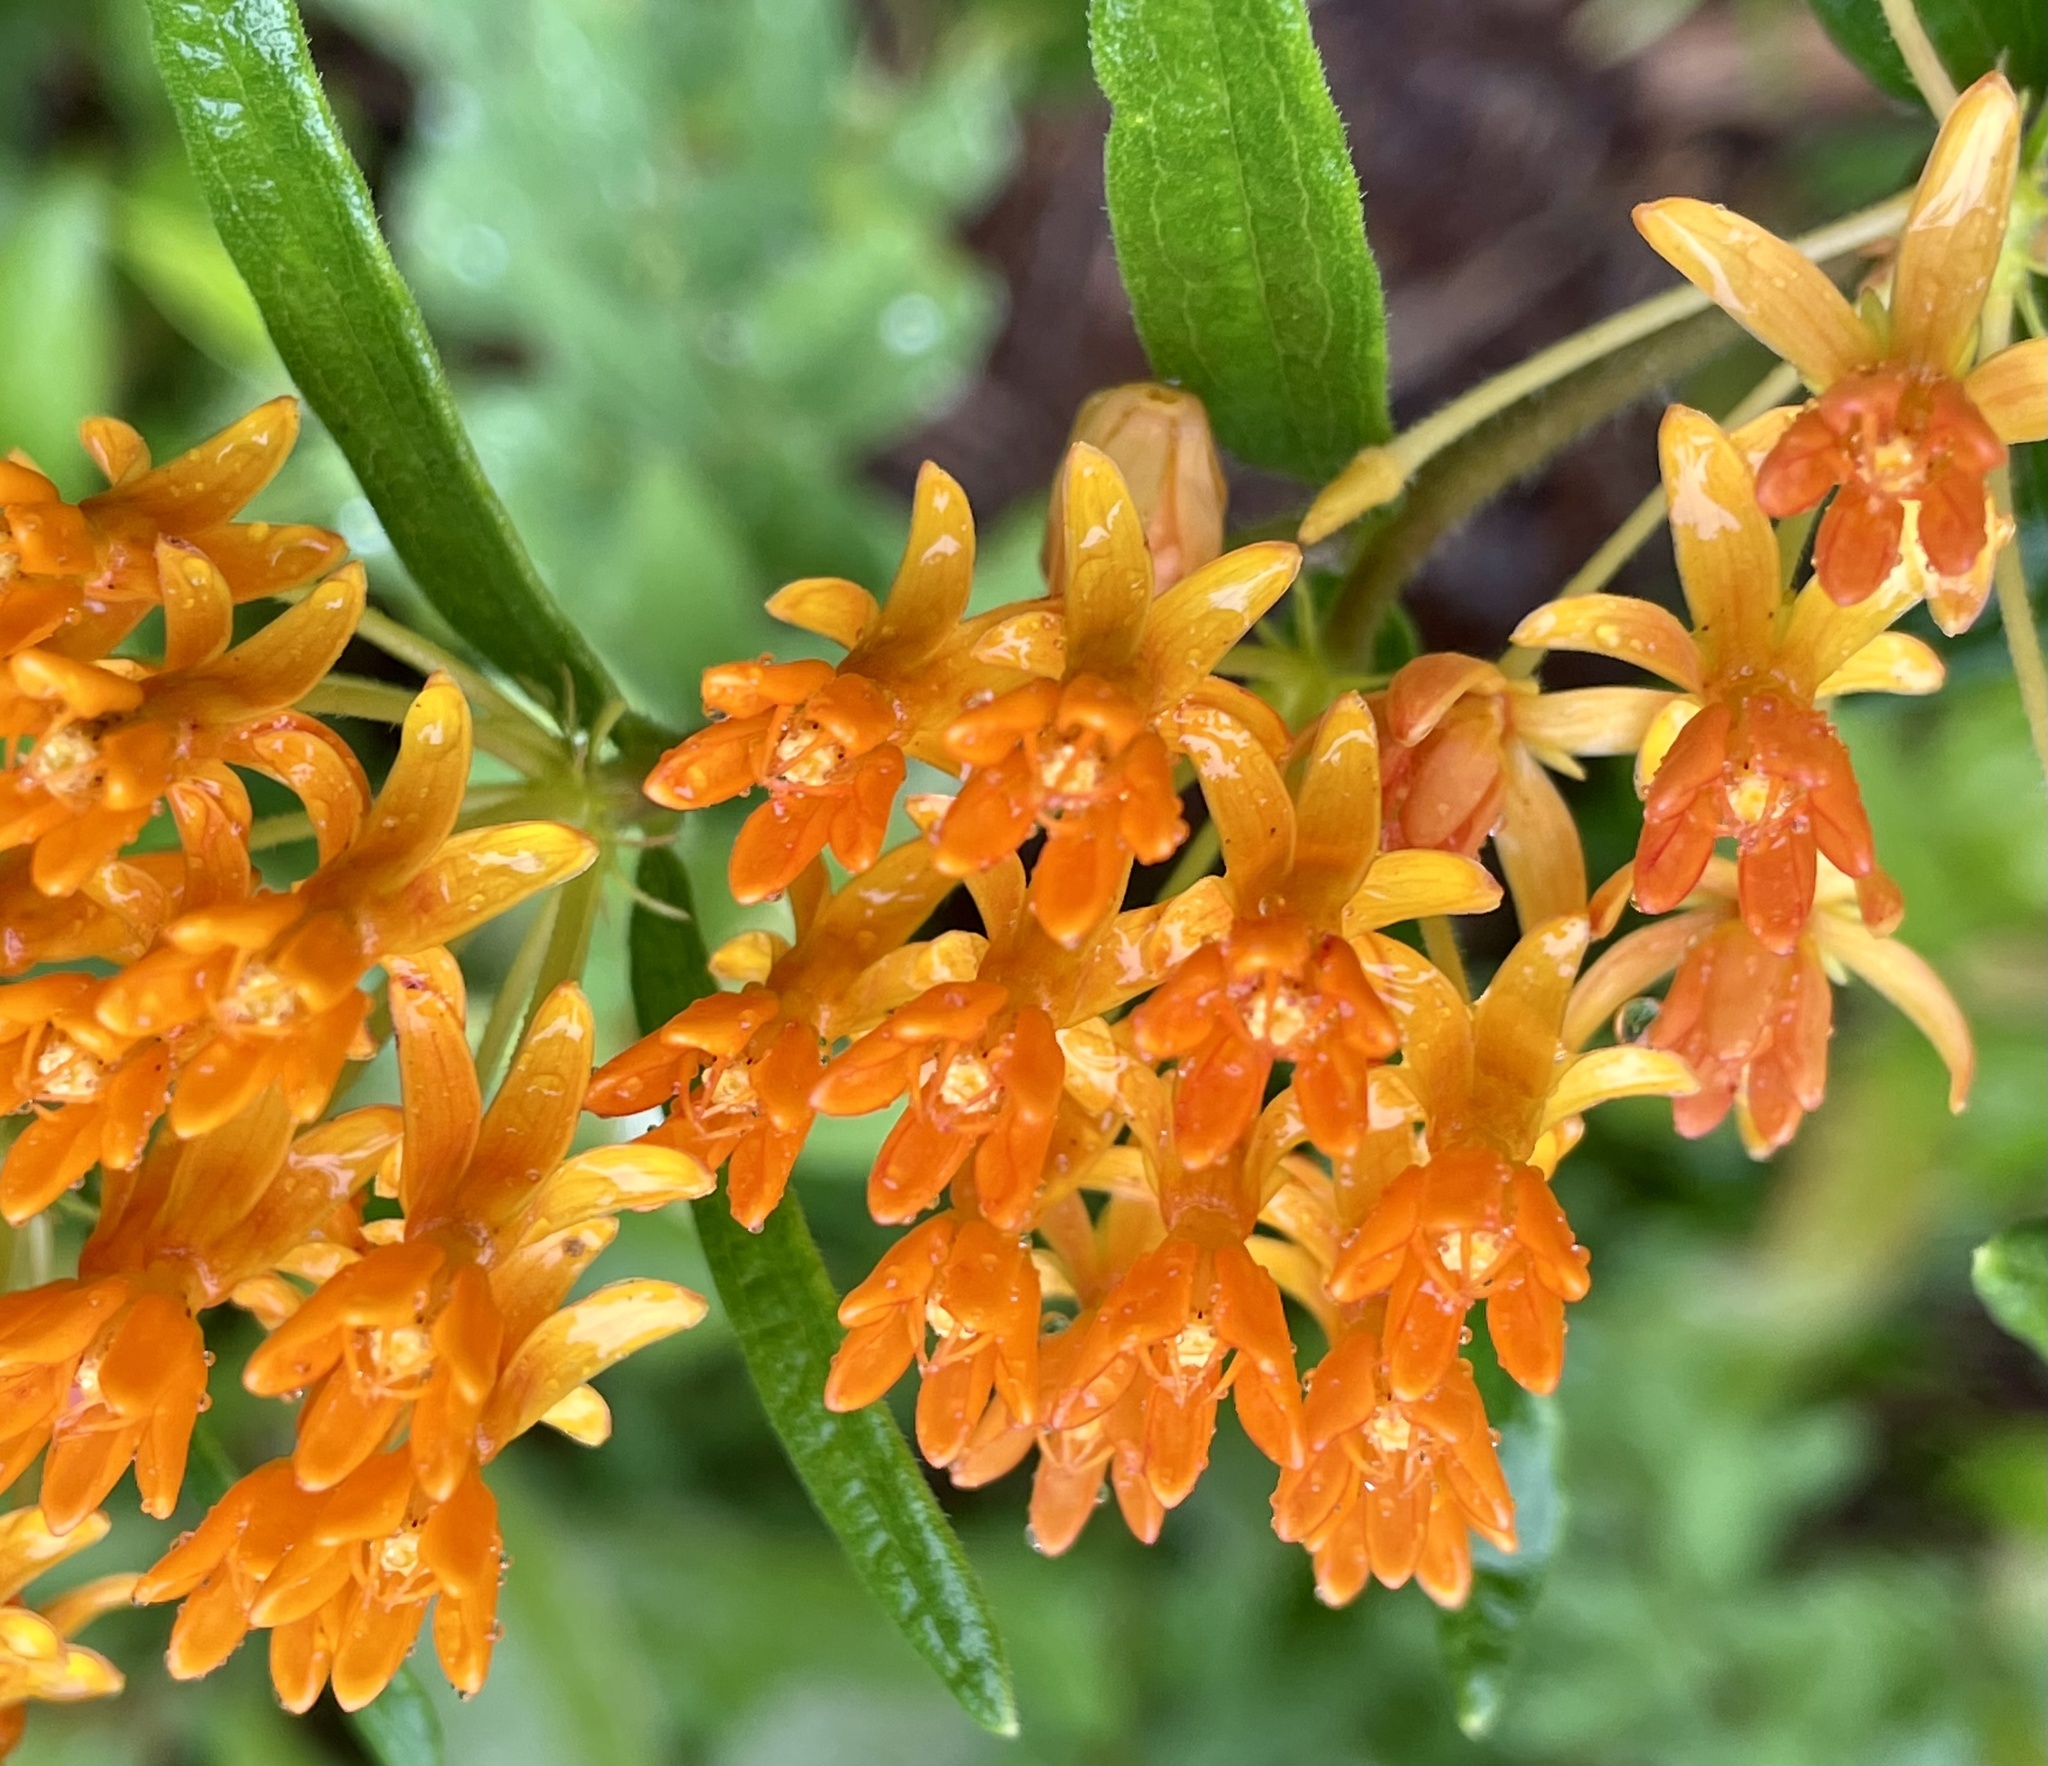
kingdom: Plantae
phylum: Tracheophyta
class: Magnoliopsida
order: Gentianales
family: Apocynaceae
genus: Asclepias
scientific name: Asclepias tuberosa
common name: Butterfly milkweed
